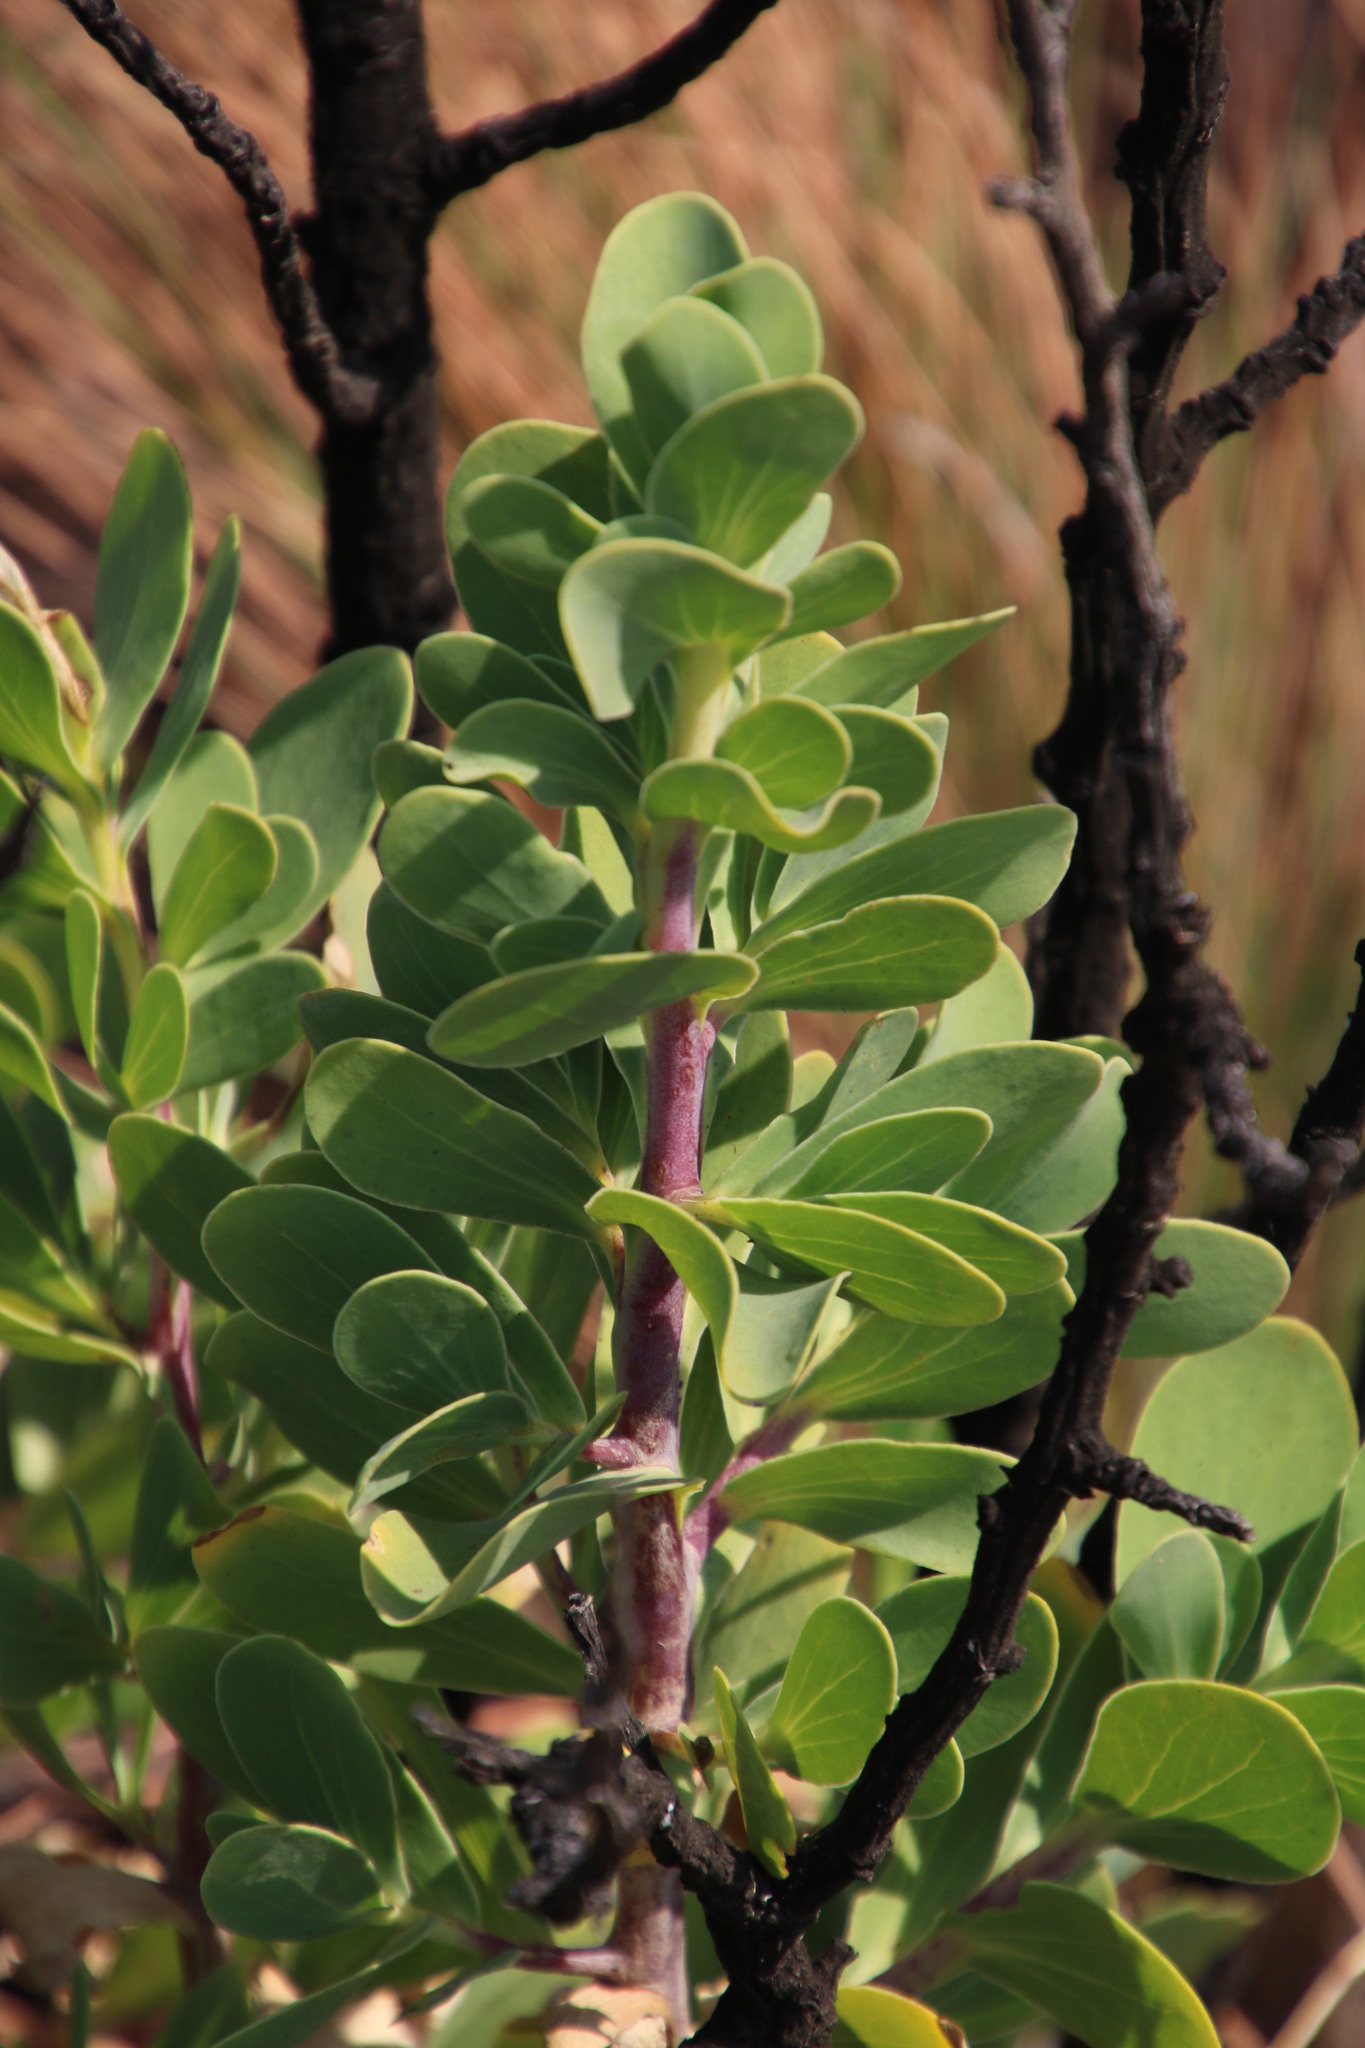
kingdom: Plantae
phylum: Tracheophyta
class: Magnoliopsida
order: Asterales
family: Asteraceae
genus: Lopholaena
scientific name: Lopholaena coriifolia
